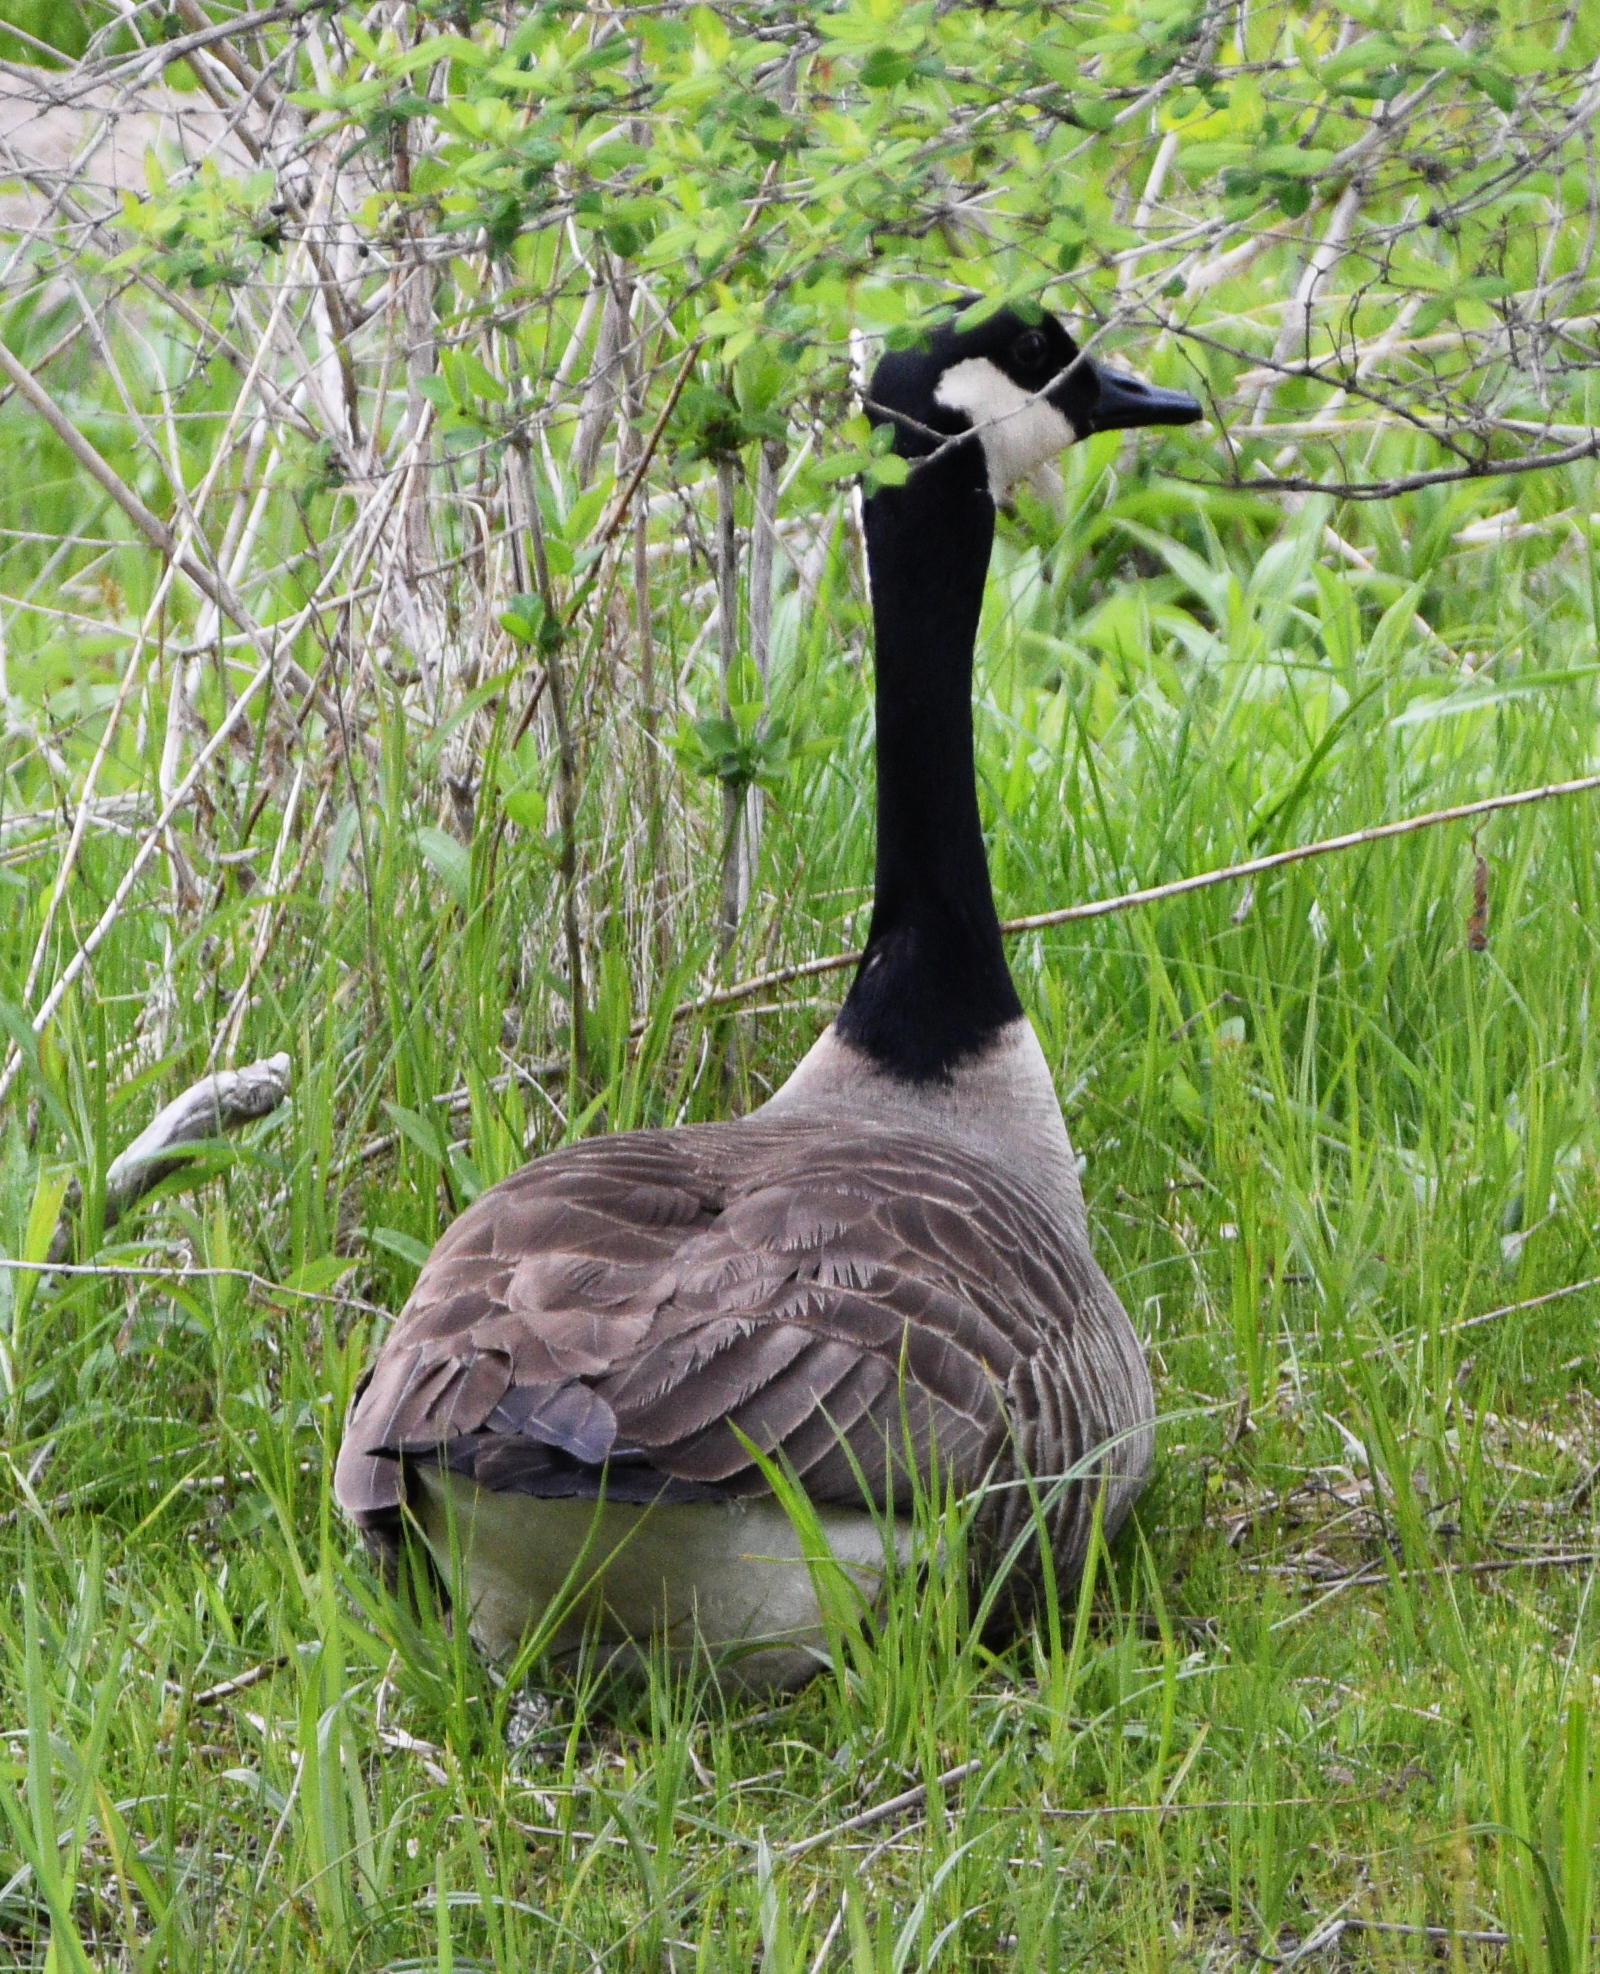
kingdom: Animalia
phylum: Chordata
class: Aves
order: Anseriformes
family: Anatidae
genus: Branta
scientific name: Branta canadensis
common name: Canada goose
